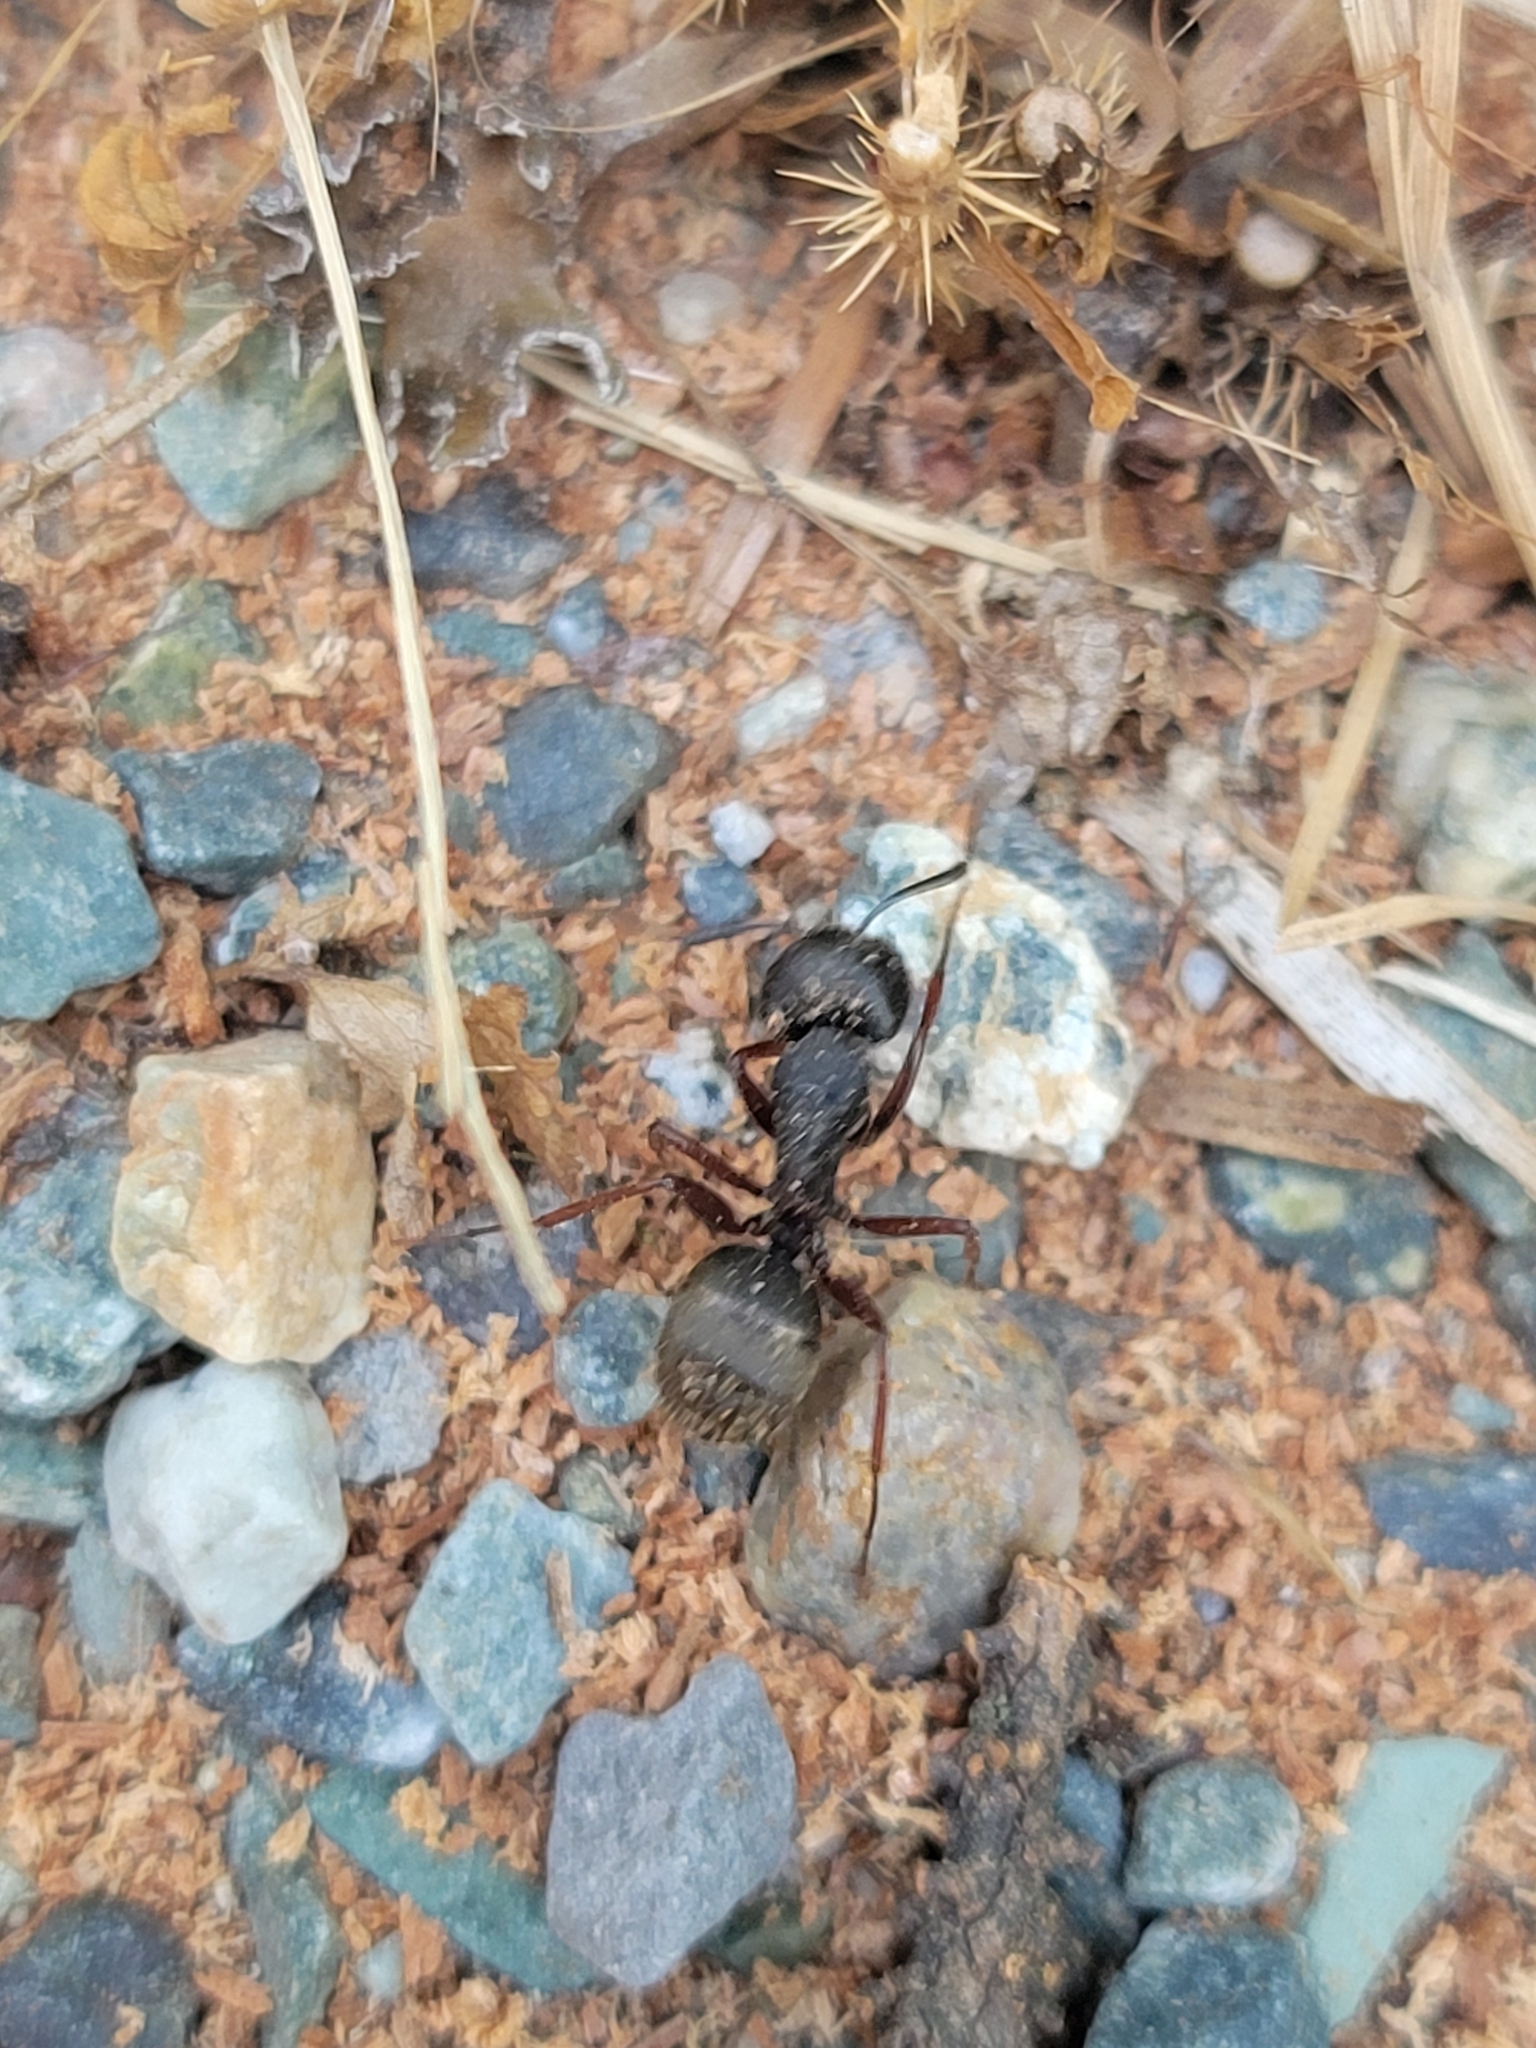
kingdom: Animalia
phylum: Arthropoda
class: Insecta
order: Hymenoptera
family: Formicidae
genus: Camponotus
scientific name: Camponotus modoc
